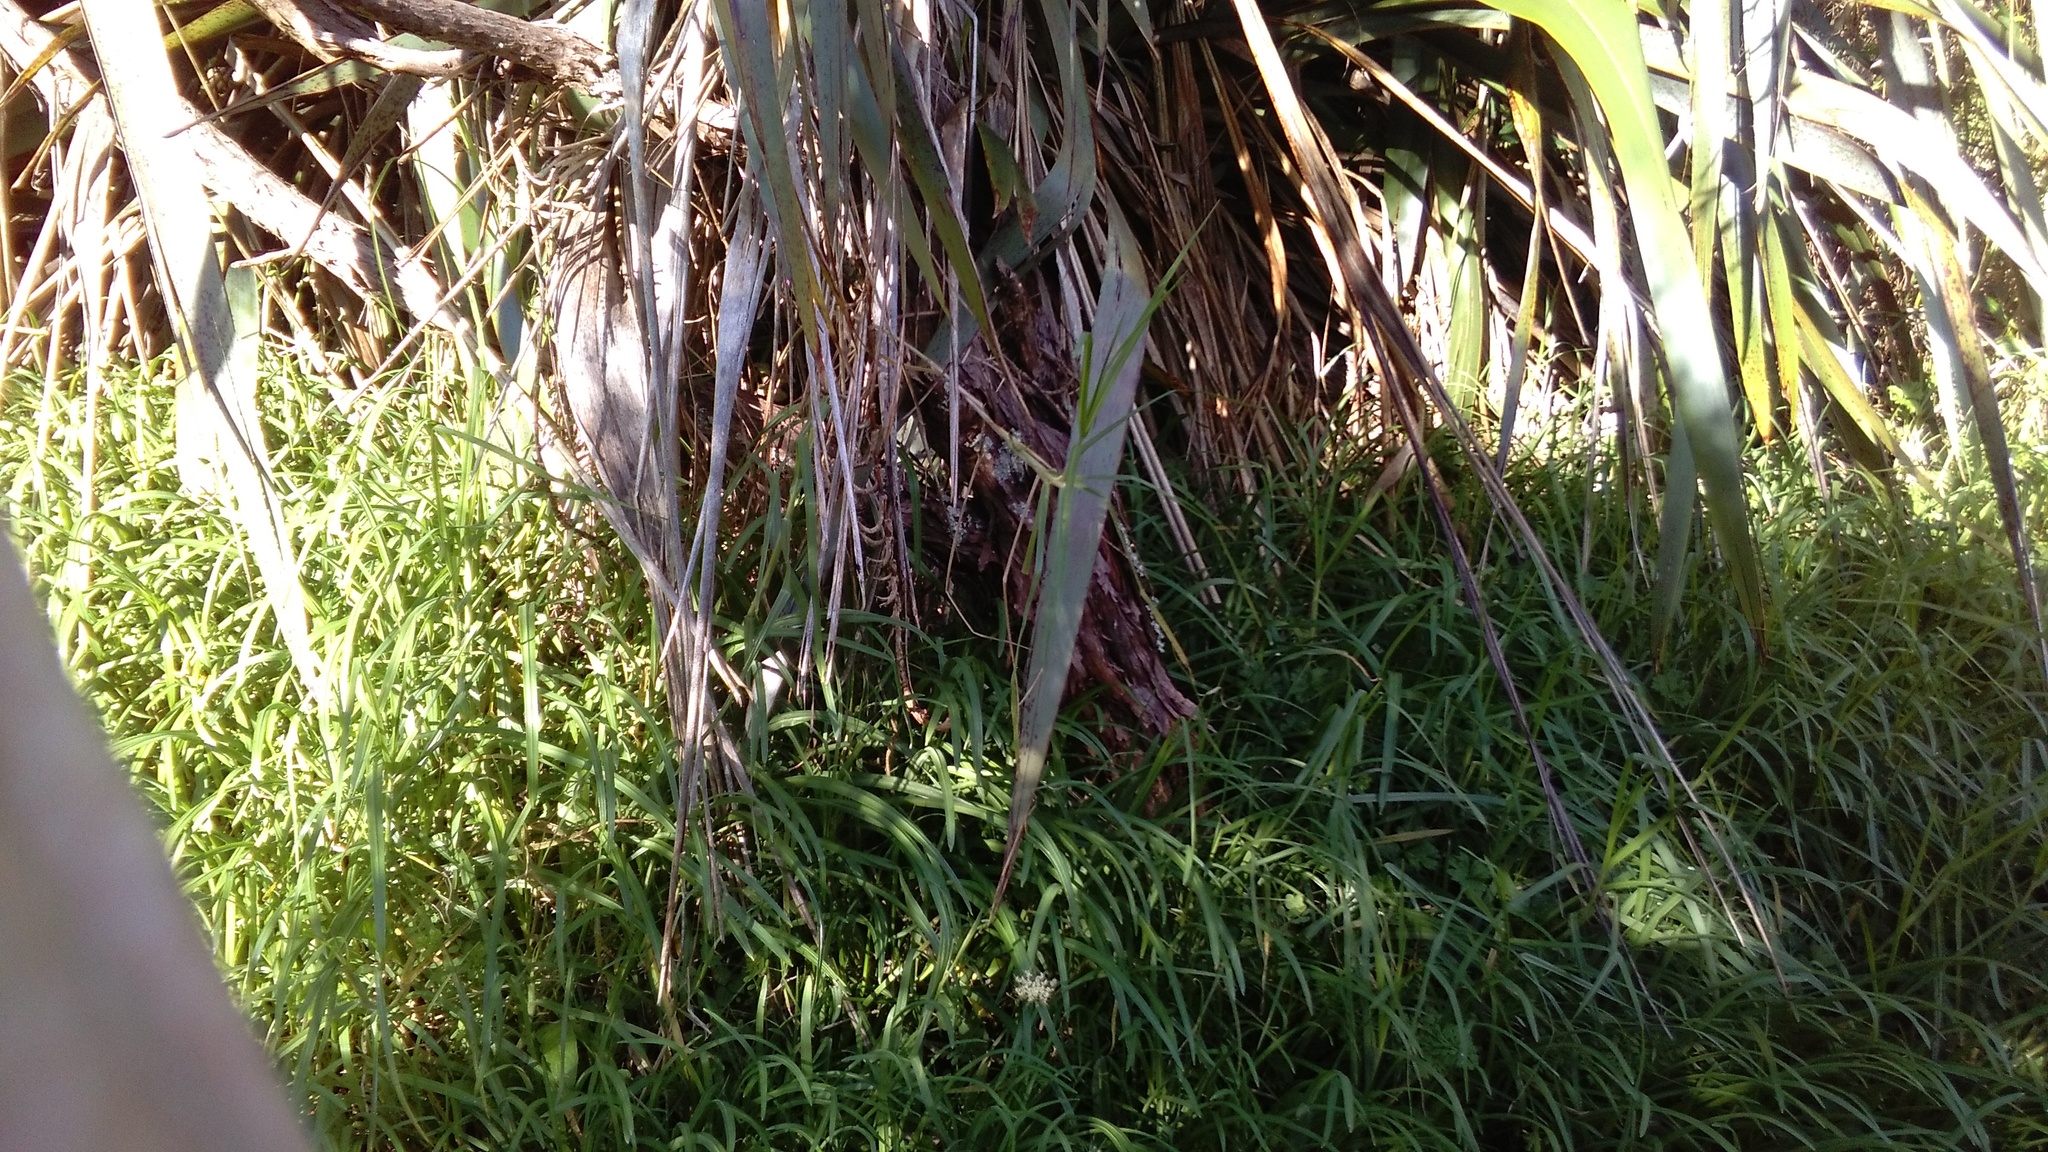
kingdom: Plantae
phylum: Tracheophyta
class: Liliopsida
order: Asparagales
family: Amaryllidaceae
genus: Allium
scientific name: Allium triquetrum
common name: Three-cornered garlic
